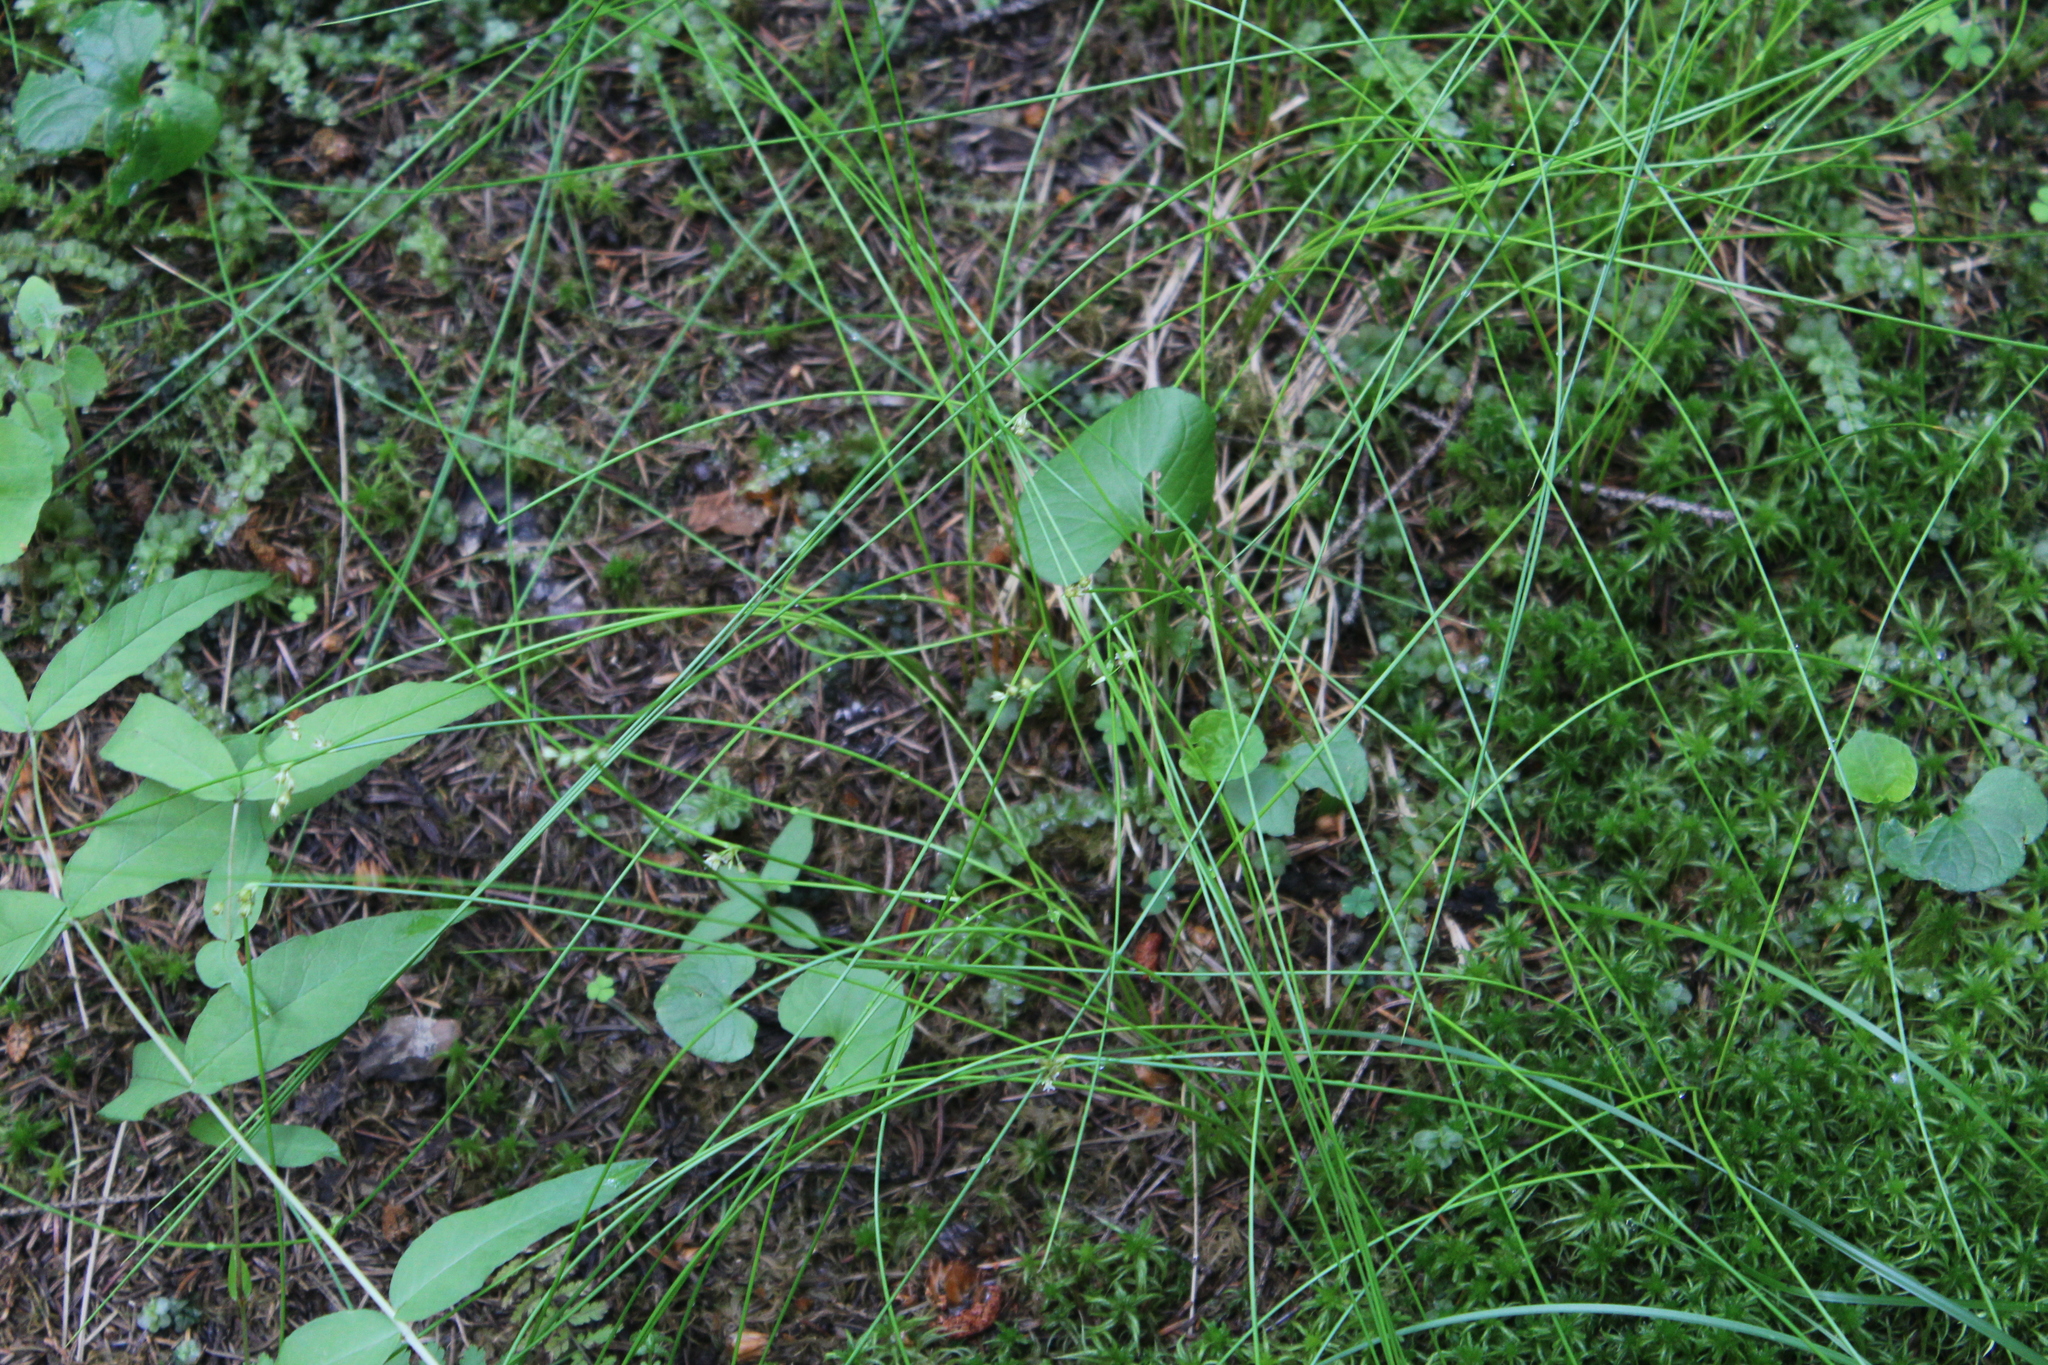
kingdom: Plantae
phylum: Tracheophyta
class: Liliopsida
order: Poales
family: Juncaceae
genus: Juncus
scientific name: Juncus filiformis
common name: Thread rush
